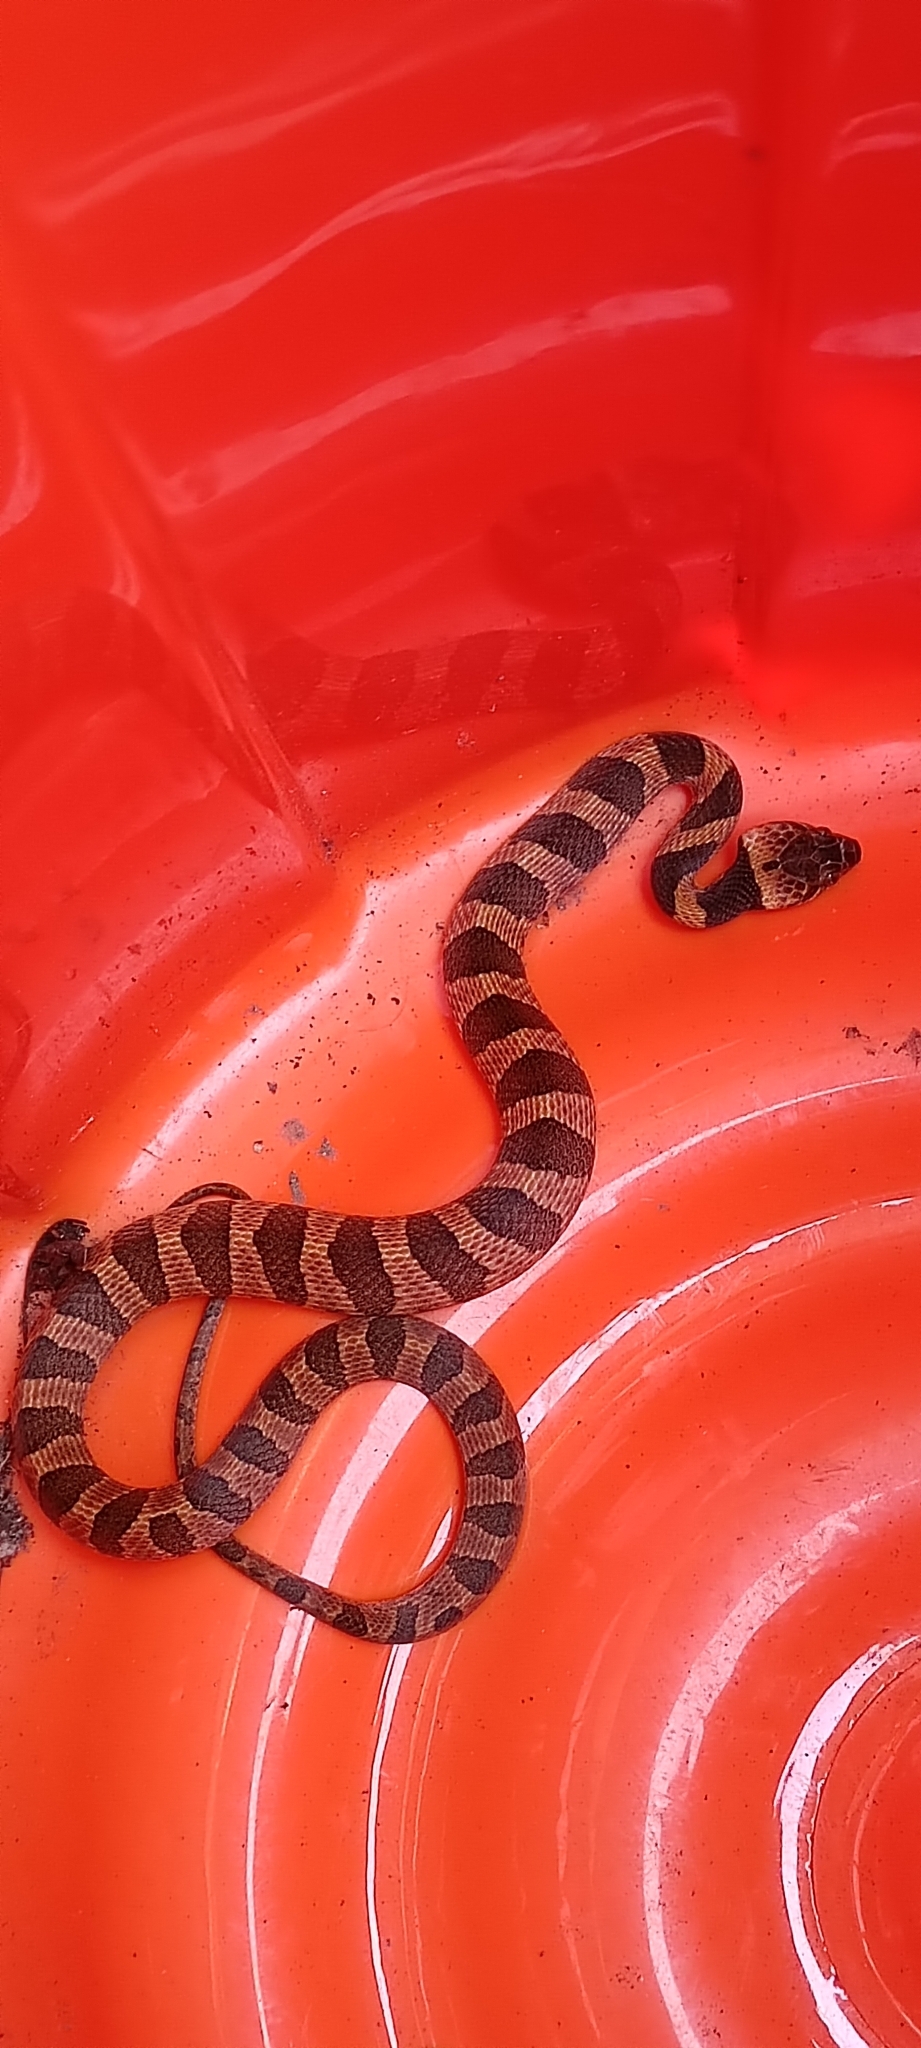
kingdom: Animalia
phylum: Chordata
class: Squamata
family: Colubridae
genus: Leptodeira
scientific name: Leptodeira septentrionalis
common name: Northern cat-eyed snake
